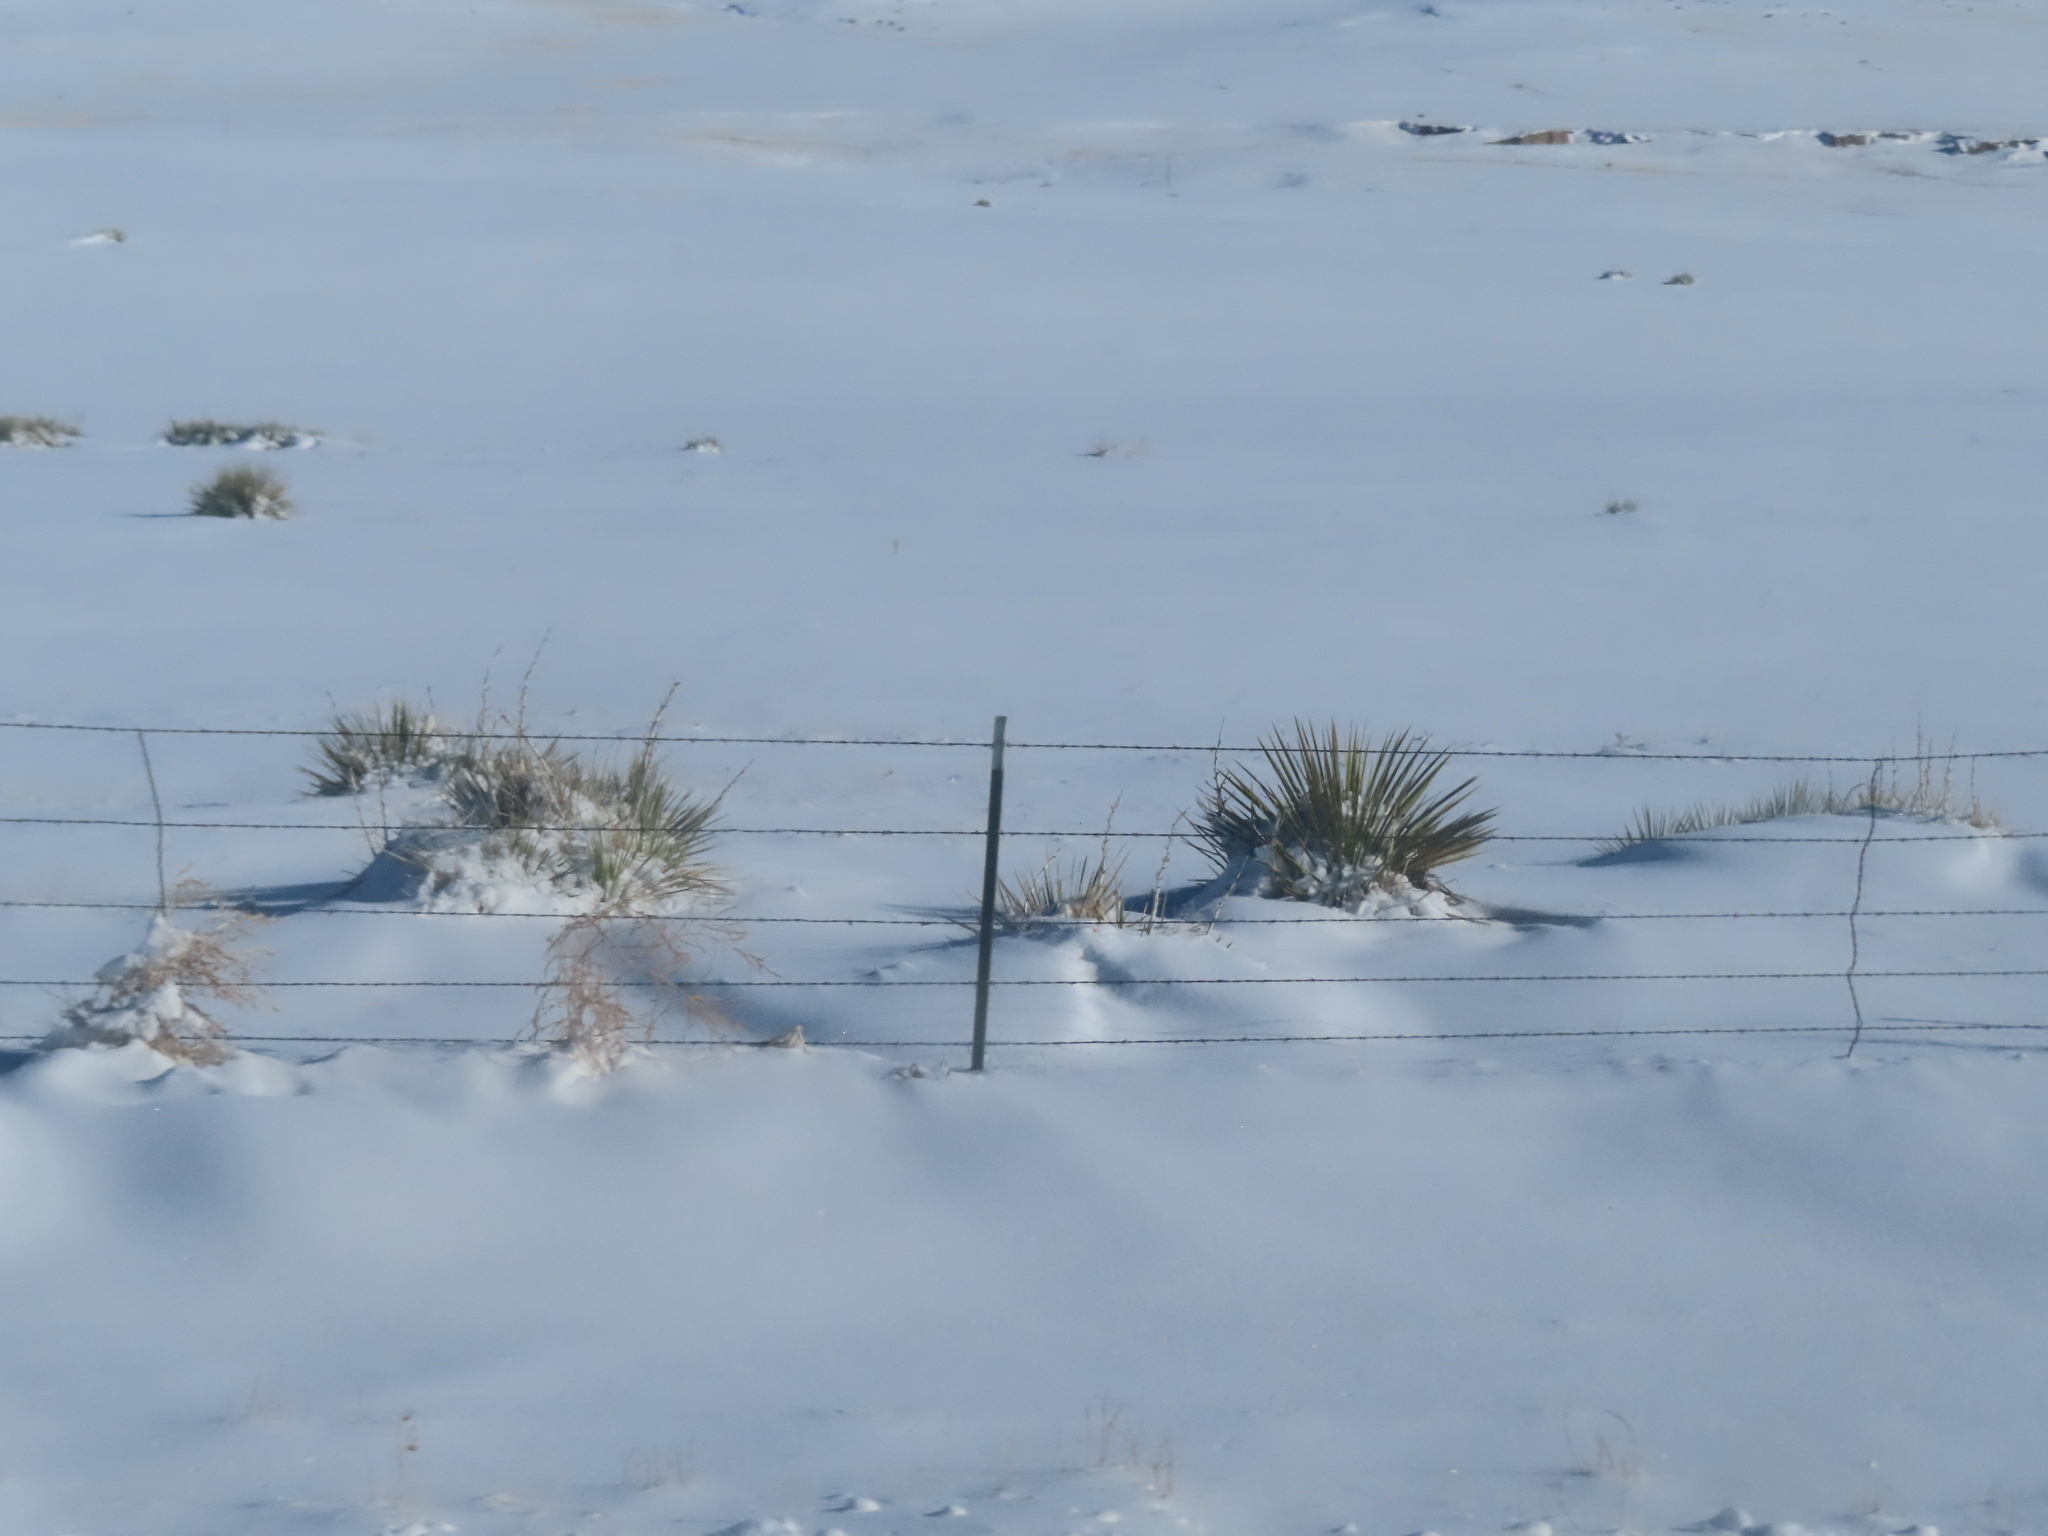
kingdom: Plantae
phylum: Tracheophyta
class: Liliopsida
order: Asparagales
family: Asparagaceae
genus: Yucca
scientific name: Yucca glauca
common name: Great plains yucca
